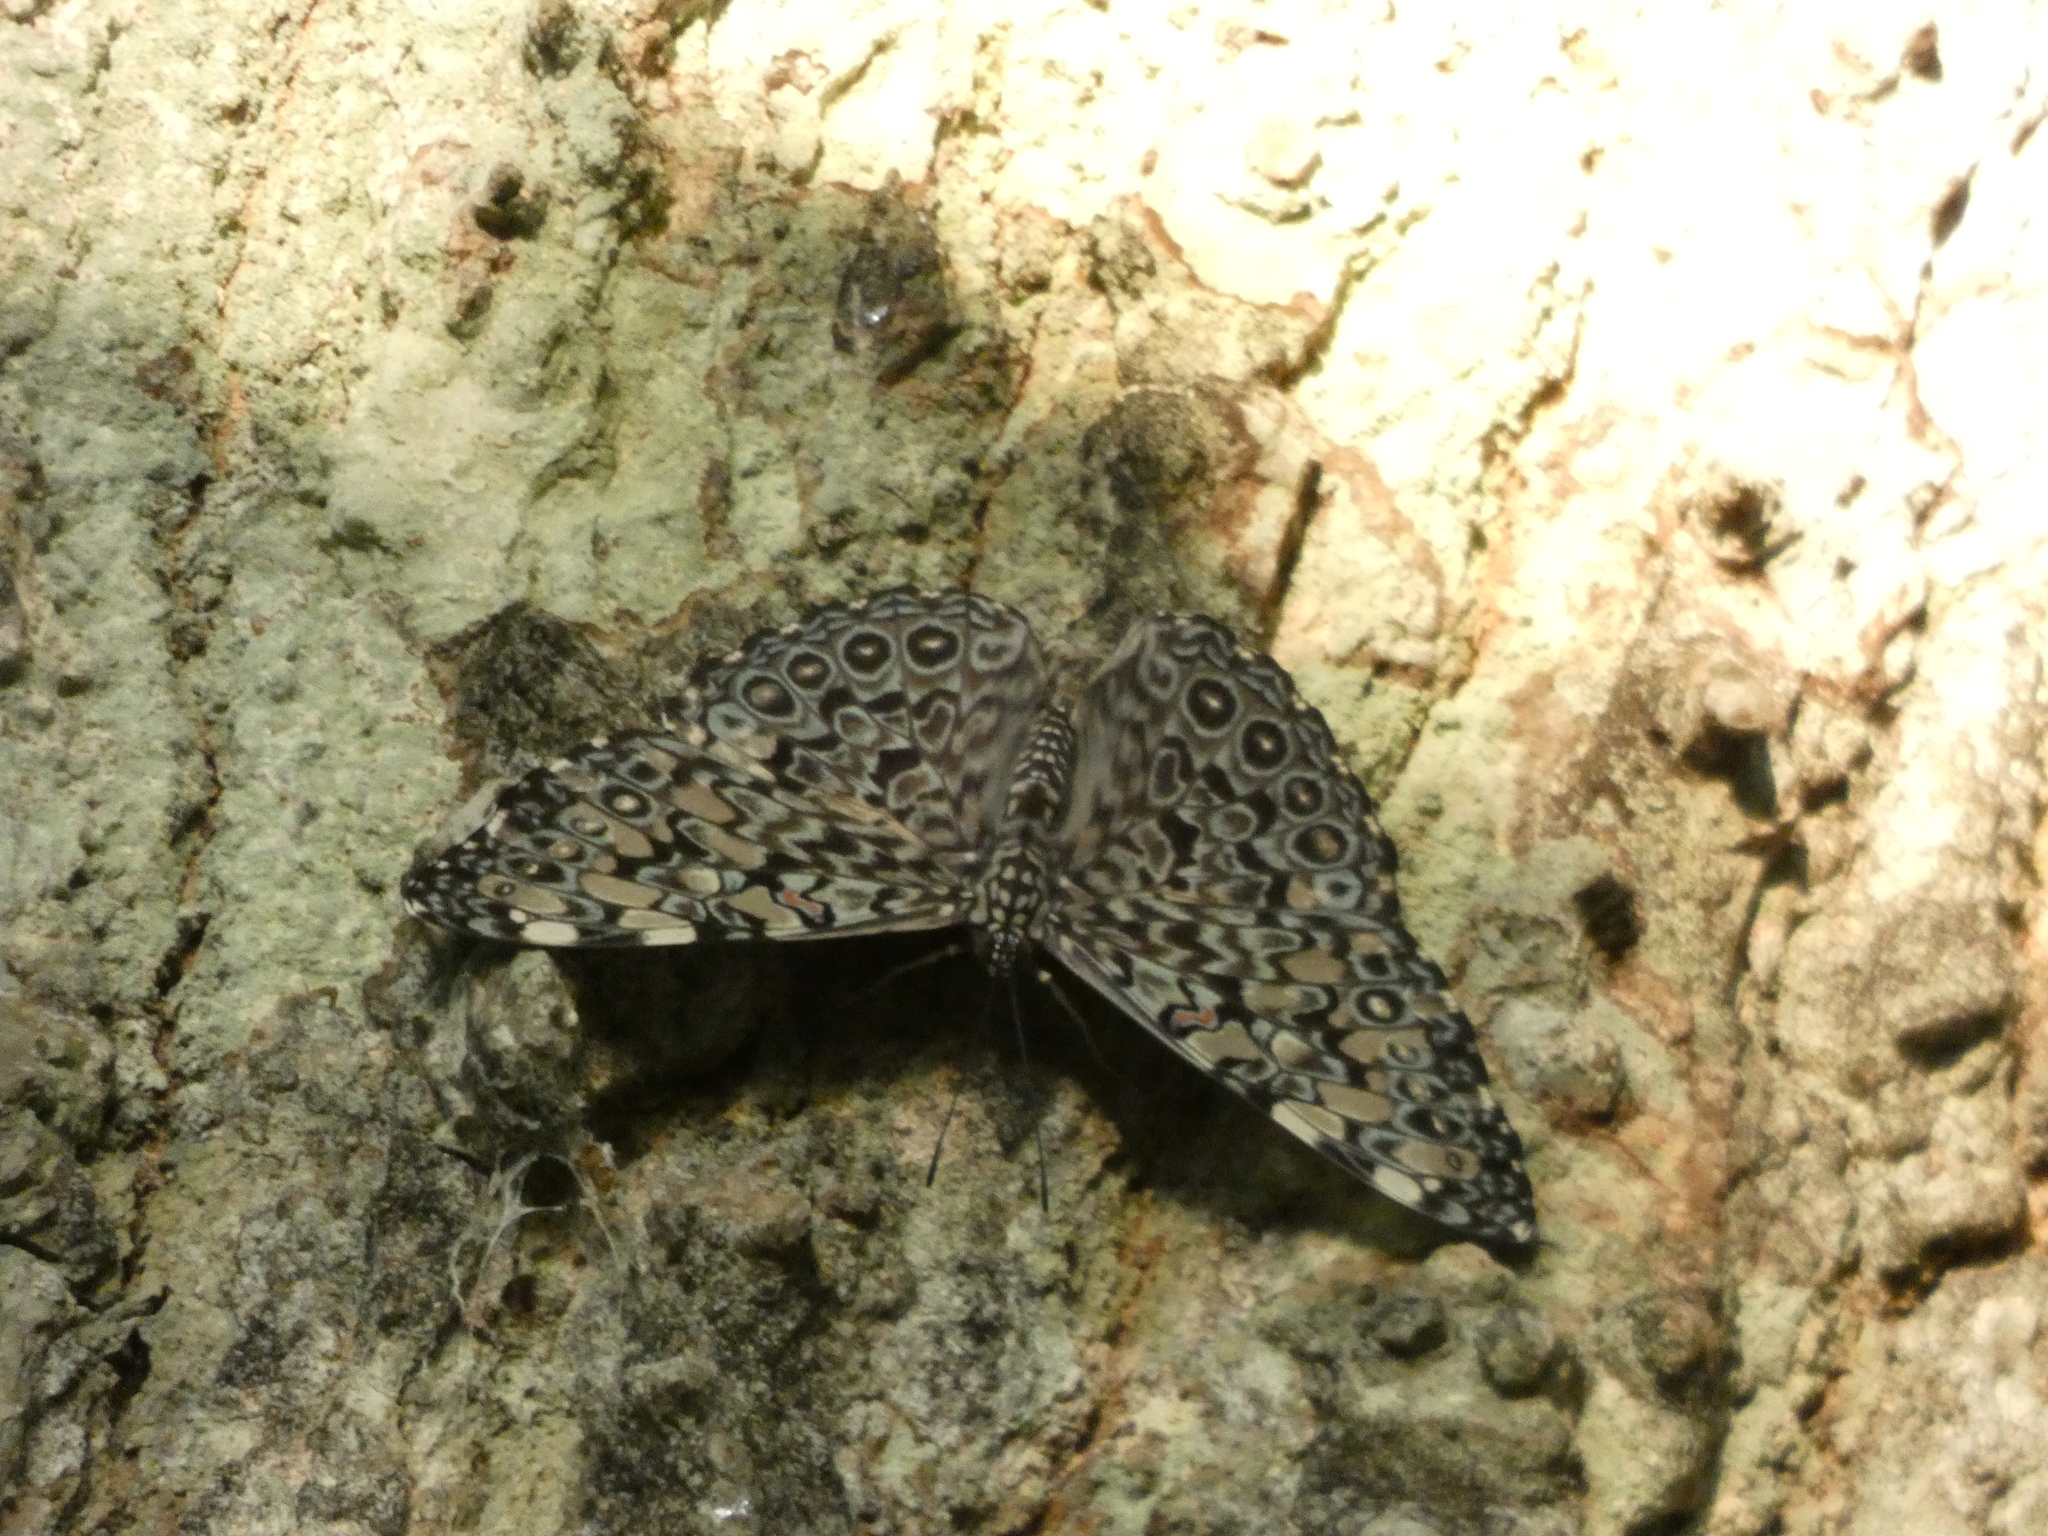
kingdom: Animalia
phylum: Arthropoda
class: Insecta
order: Lepidoptera
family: Nymphalidae
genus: Hamadryas
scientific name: Hamadryas feronia
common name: Variable cracker
